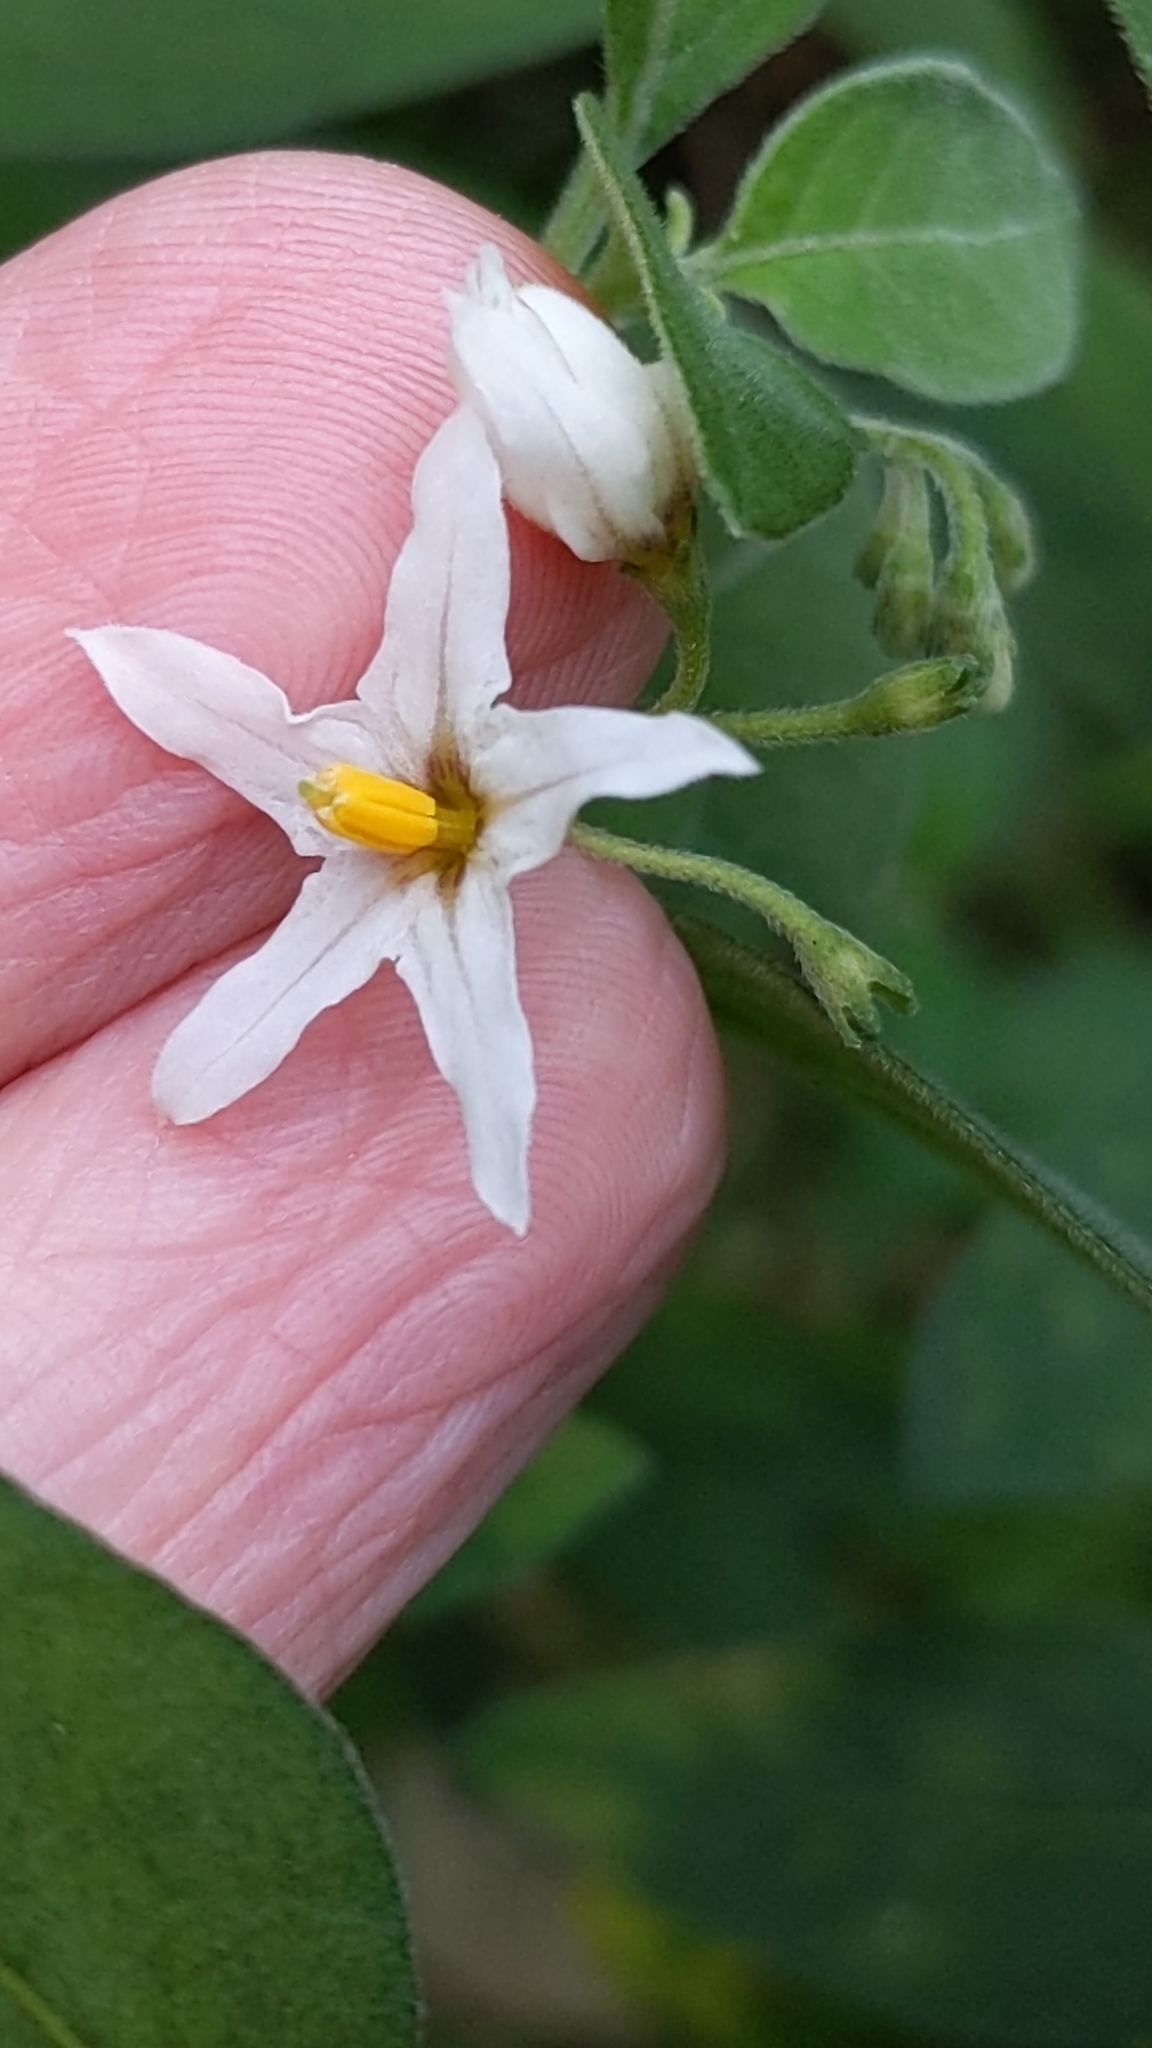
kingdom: Plantae
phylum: Tracheophyta
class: Magnoliopsida
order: Solanales
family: Solanaceae
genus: Solanum
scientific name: Solanum chenopodioides
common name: Tall nightshade
